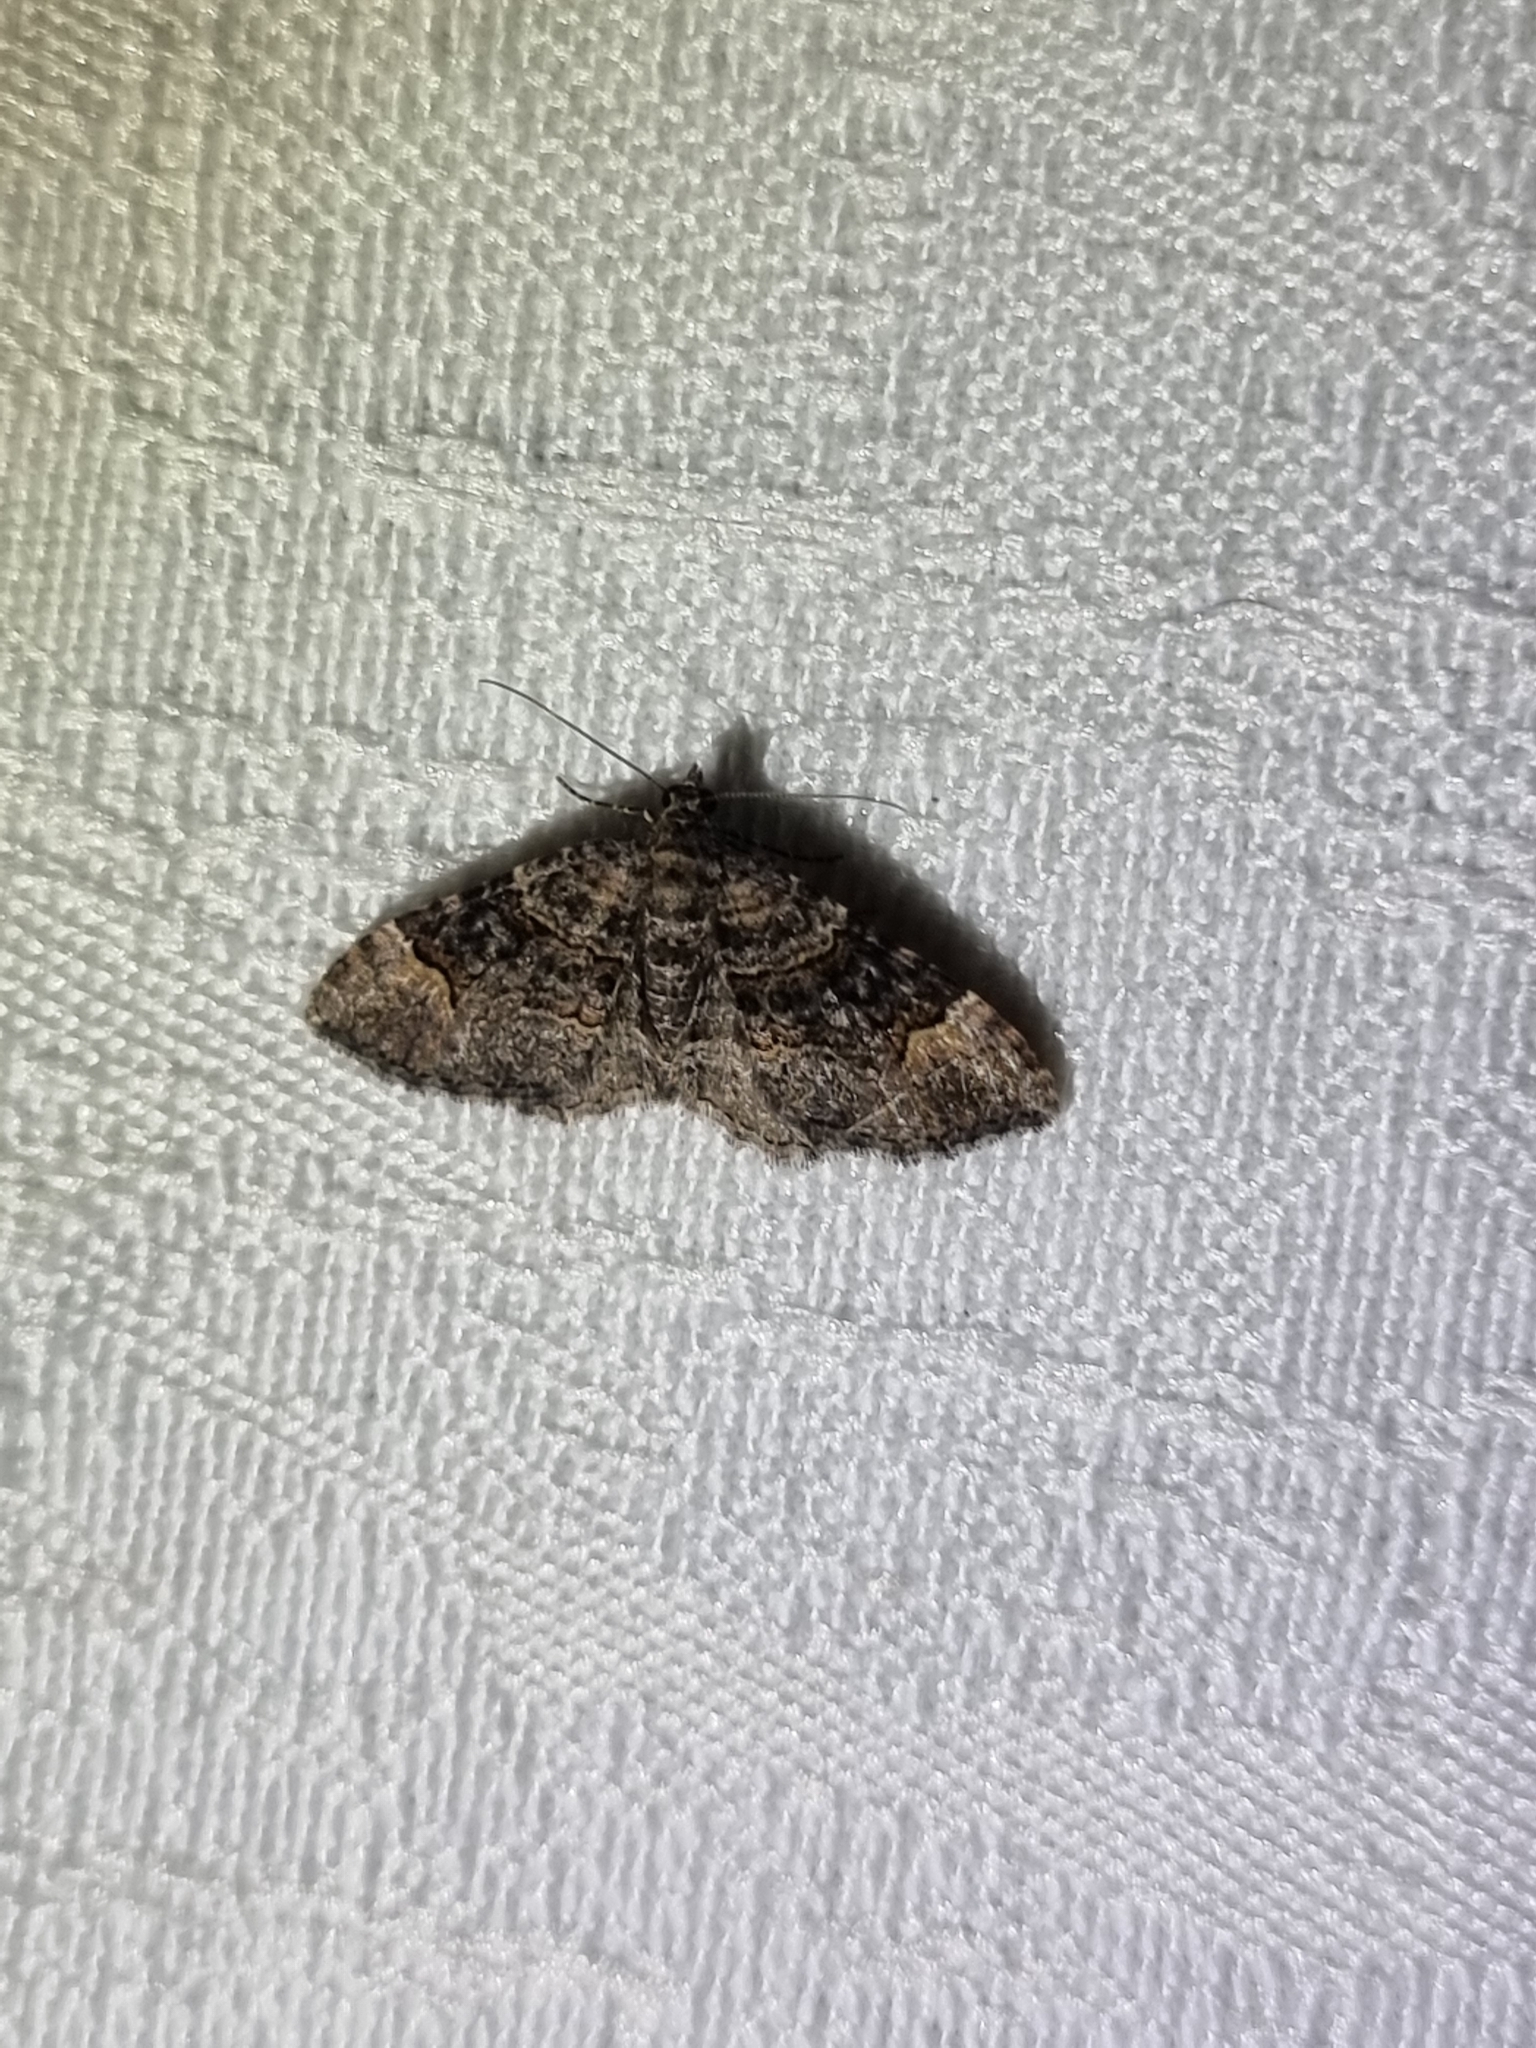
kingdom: Animalia
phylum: Arthropoda
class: Insecta
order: Lepidoptera
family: Geometridae
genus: Epyaxa
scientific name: Epyaxa sodaliata
